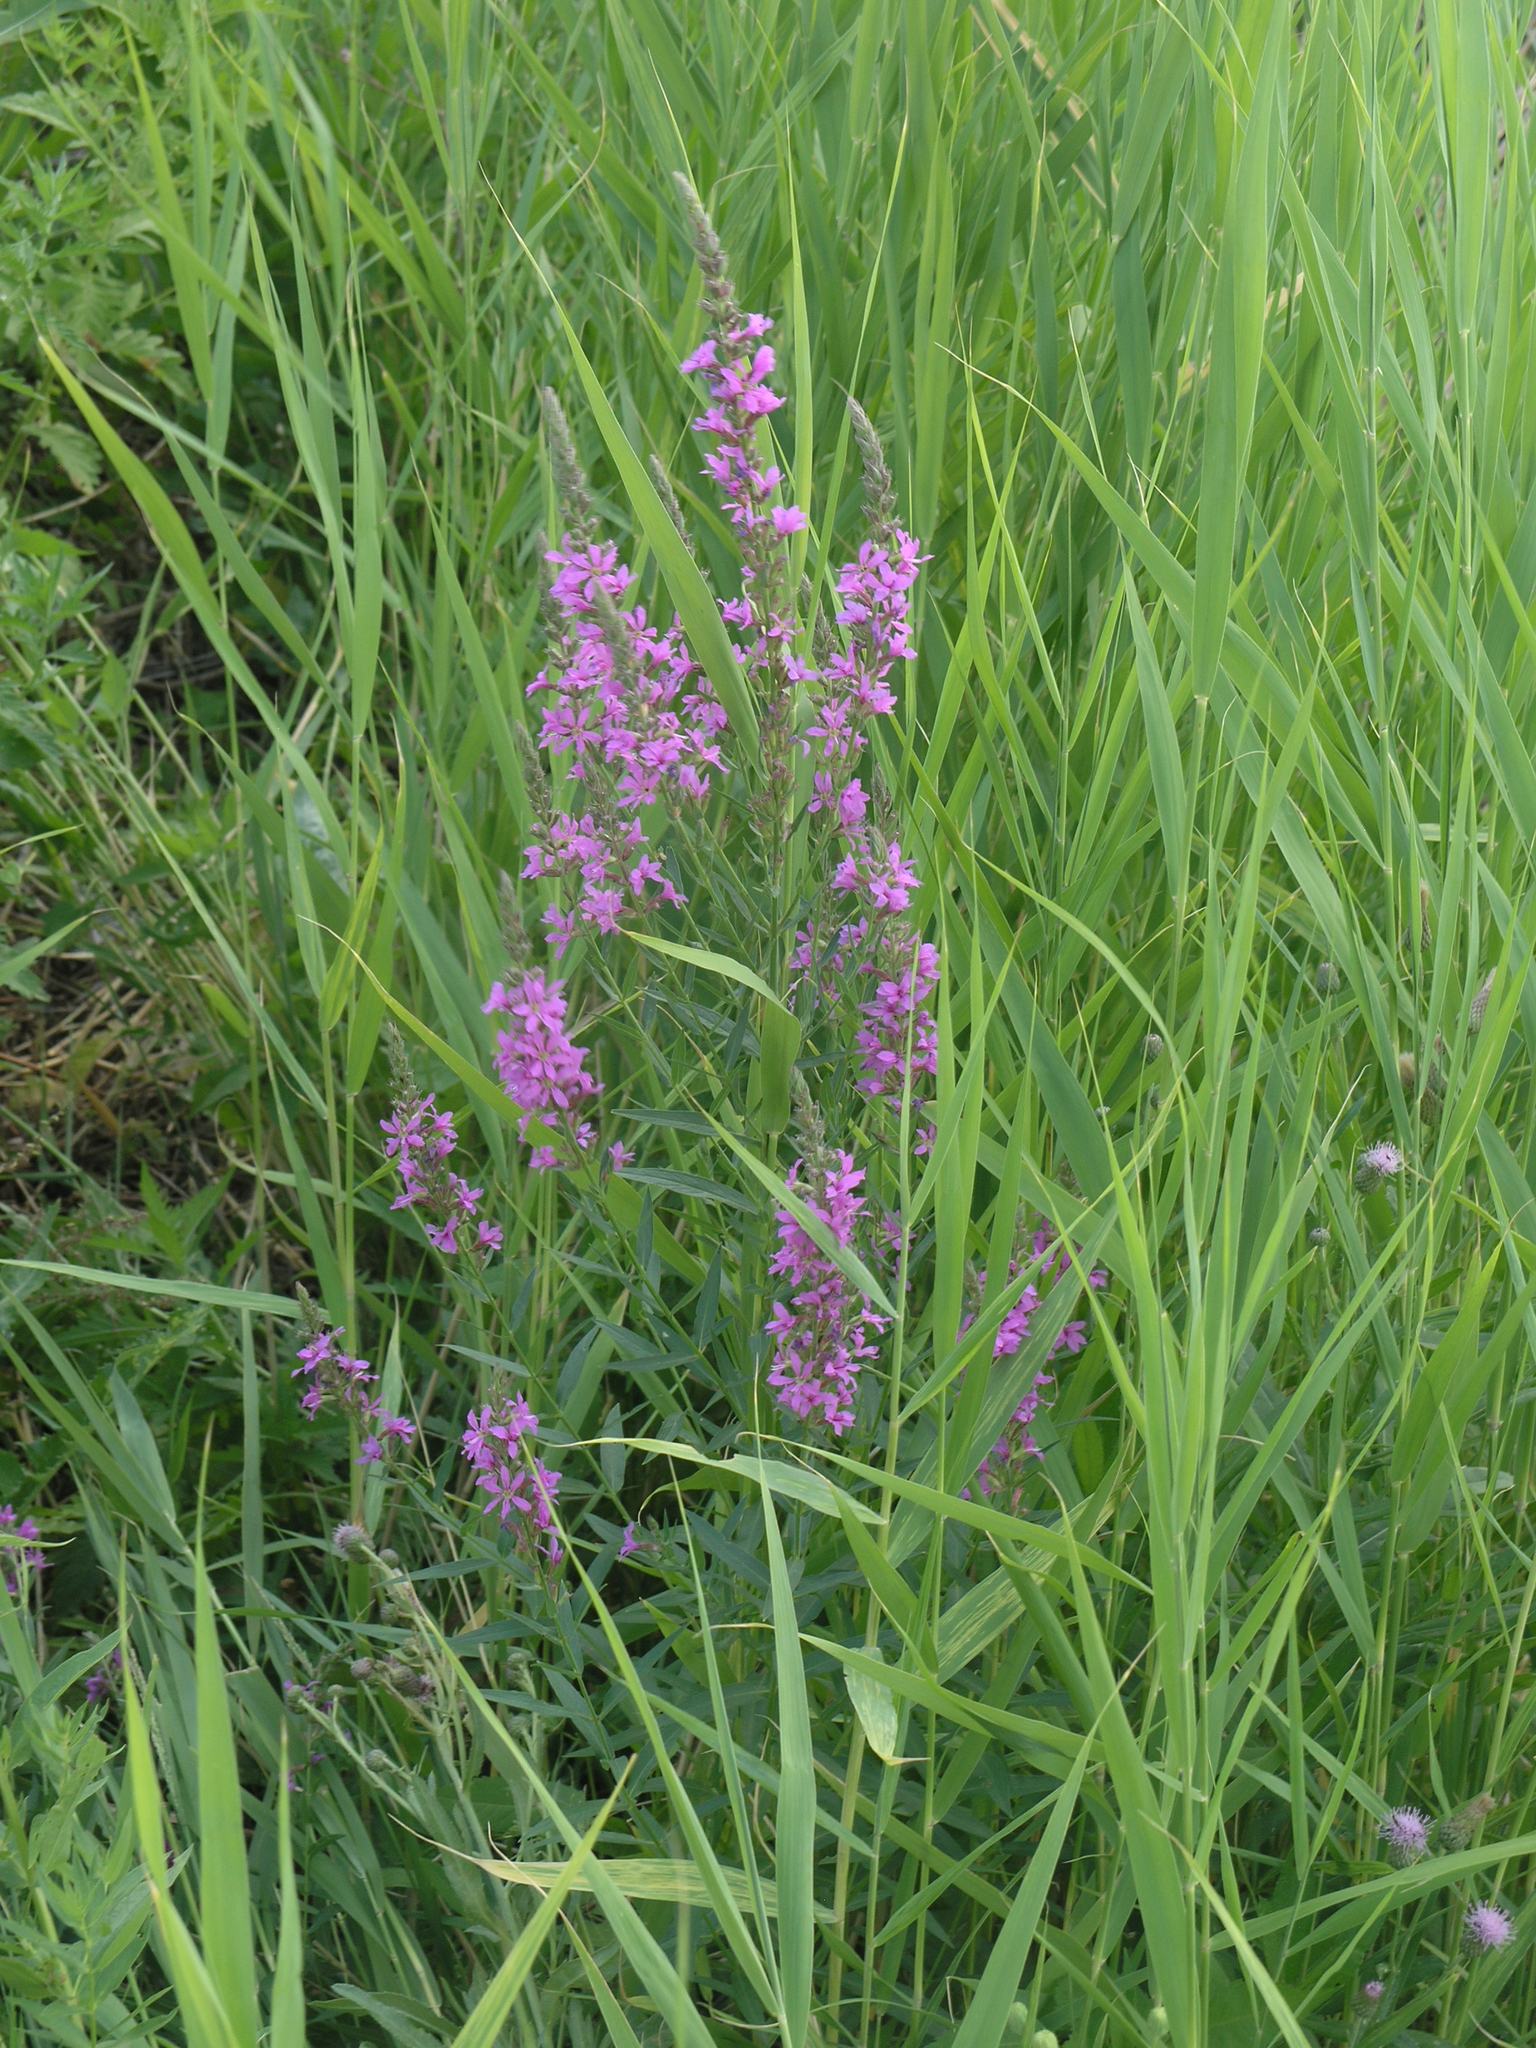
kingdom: Plantae
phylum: Tracheophyta
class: Magnoliopsida
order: Myrtales
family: Lythraceae
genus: Lythrum
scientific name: Lythrum salicaria
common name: Purple loosestrife
